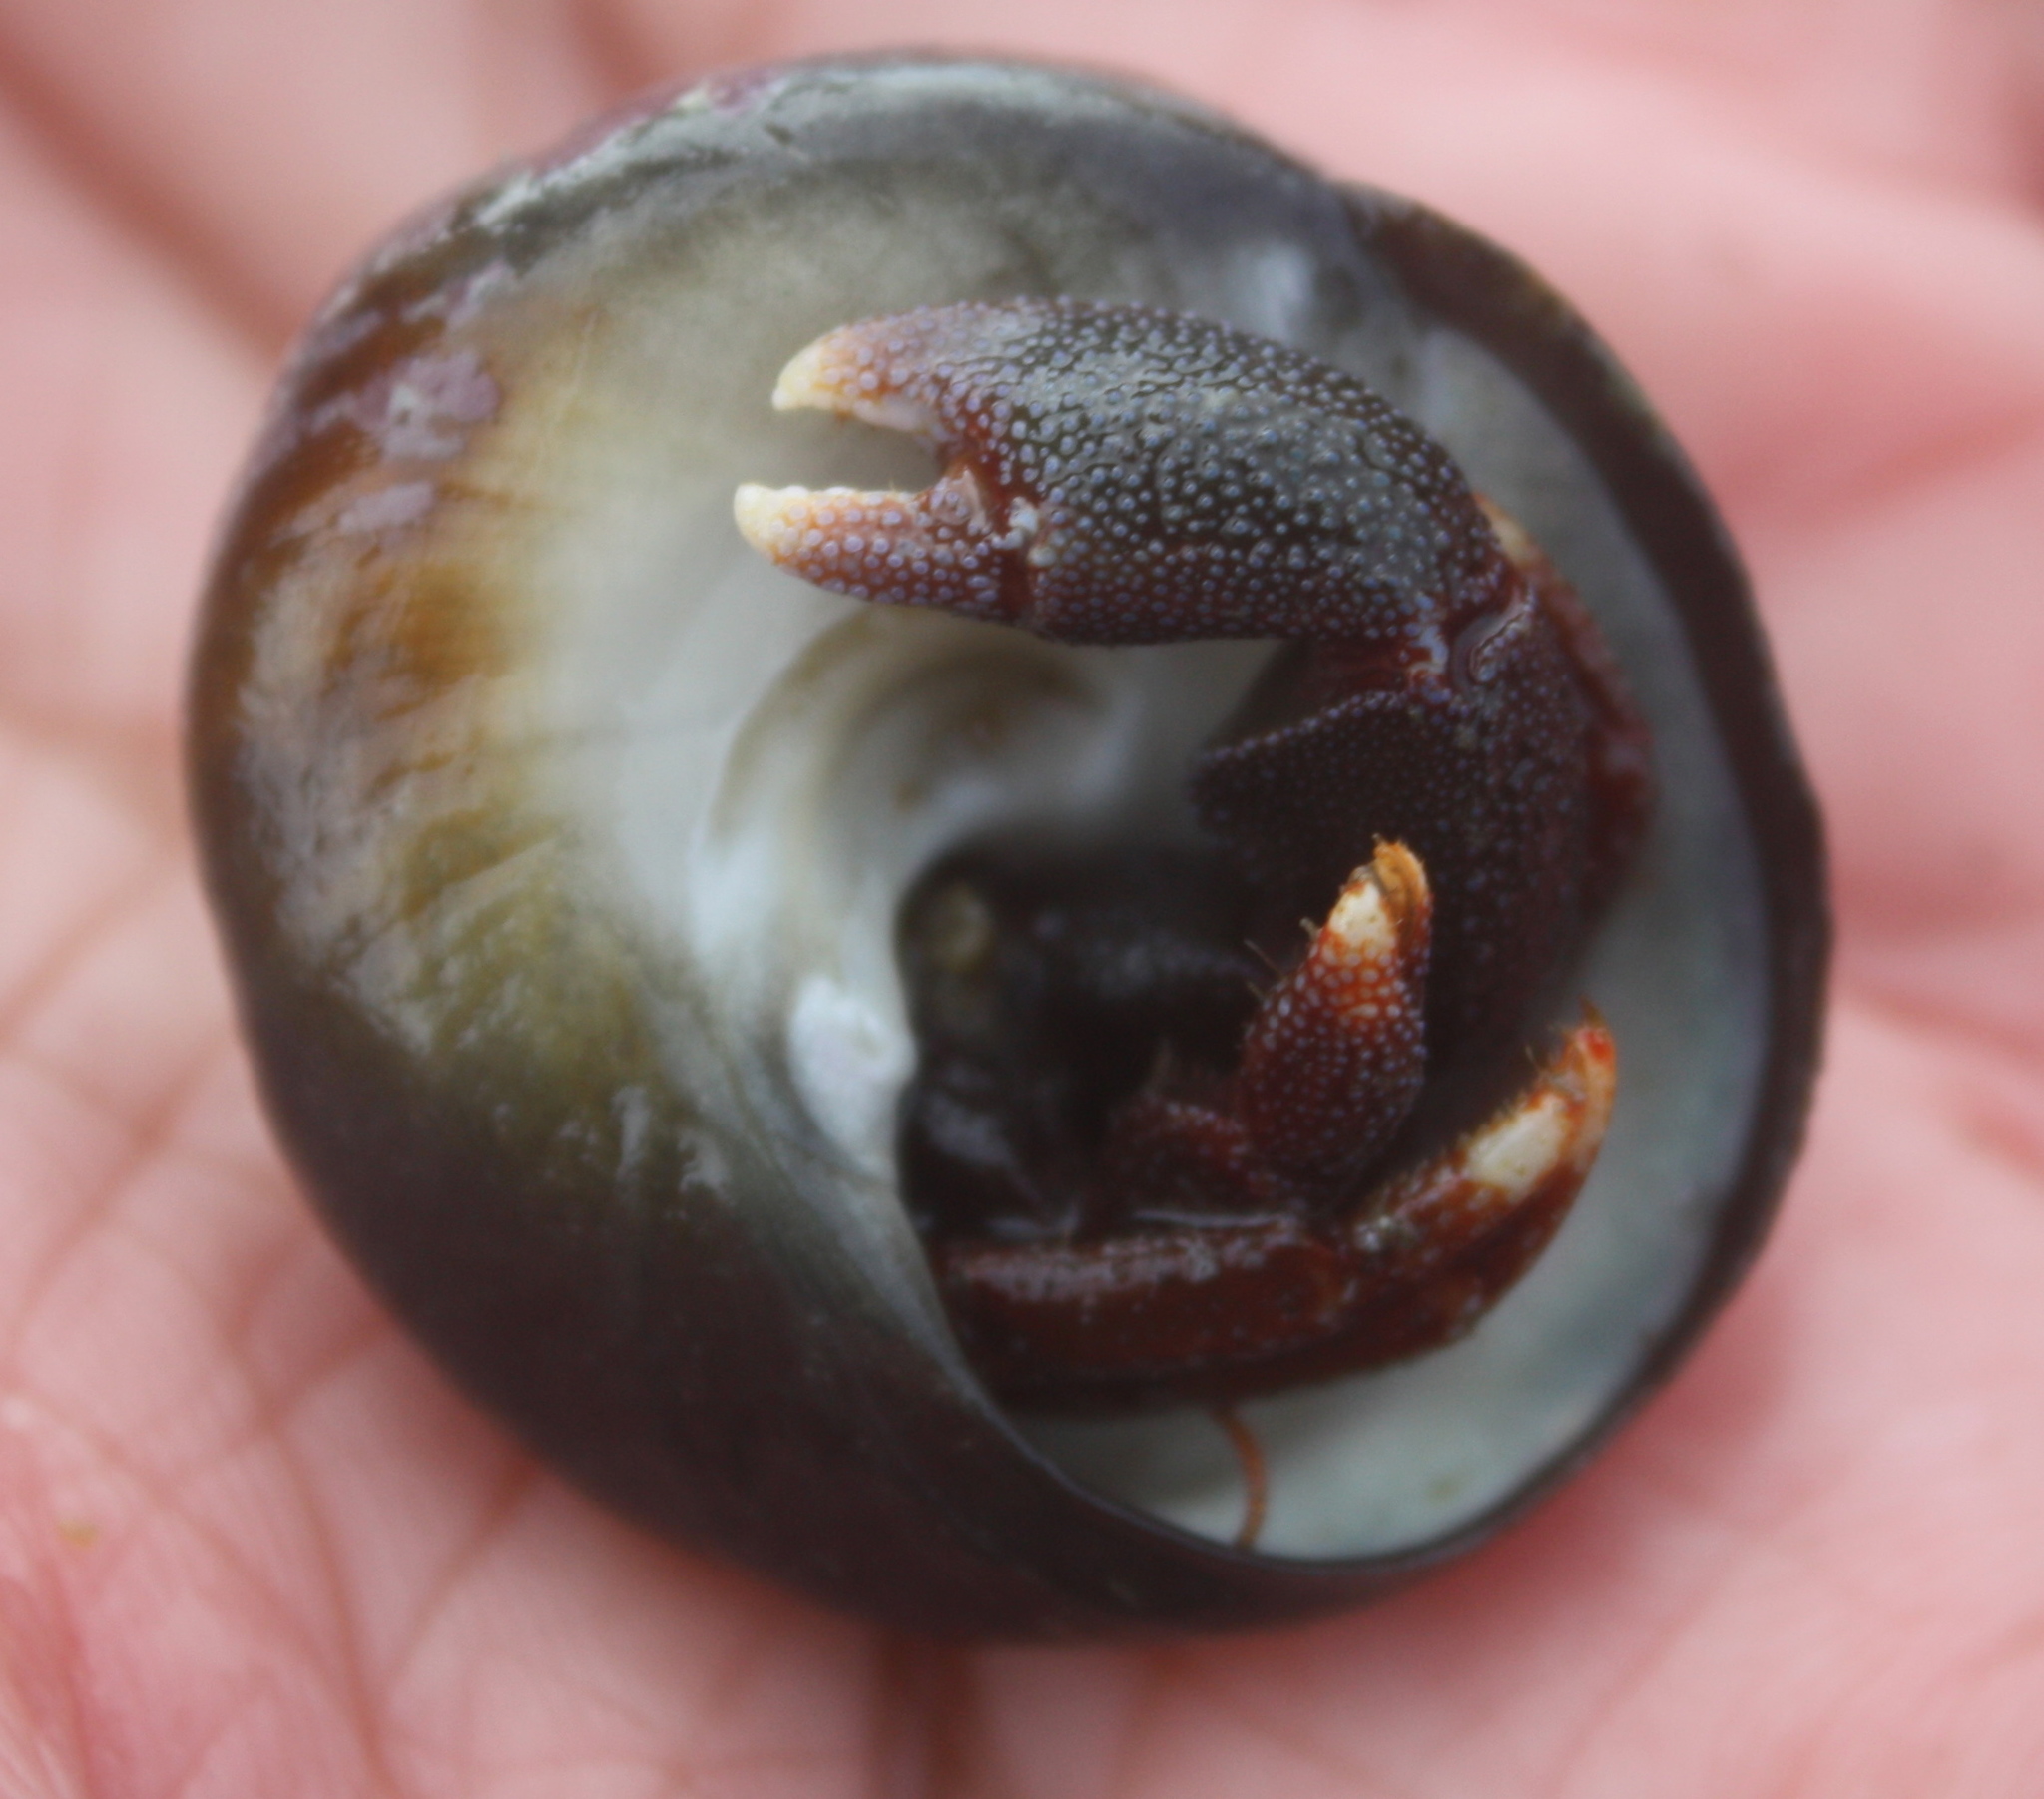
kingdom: Animalia
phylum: Arthropoda
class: Malacostraca
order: Decapoda
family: Paguridae
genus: Pagurus
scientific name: Pagurus hemphilli
